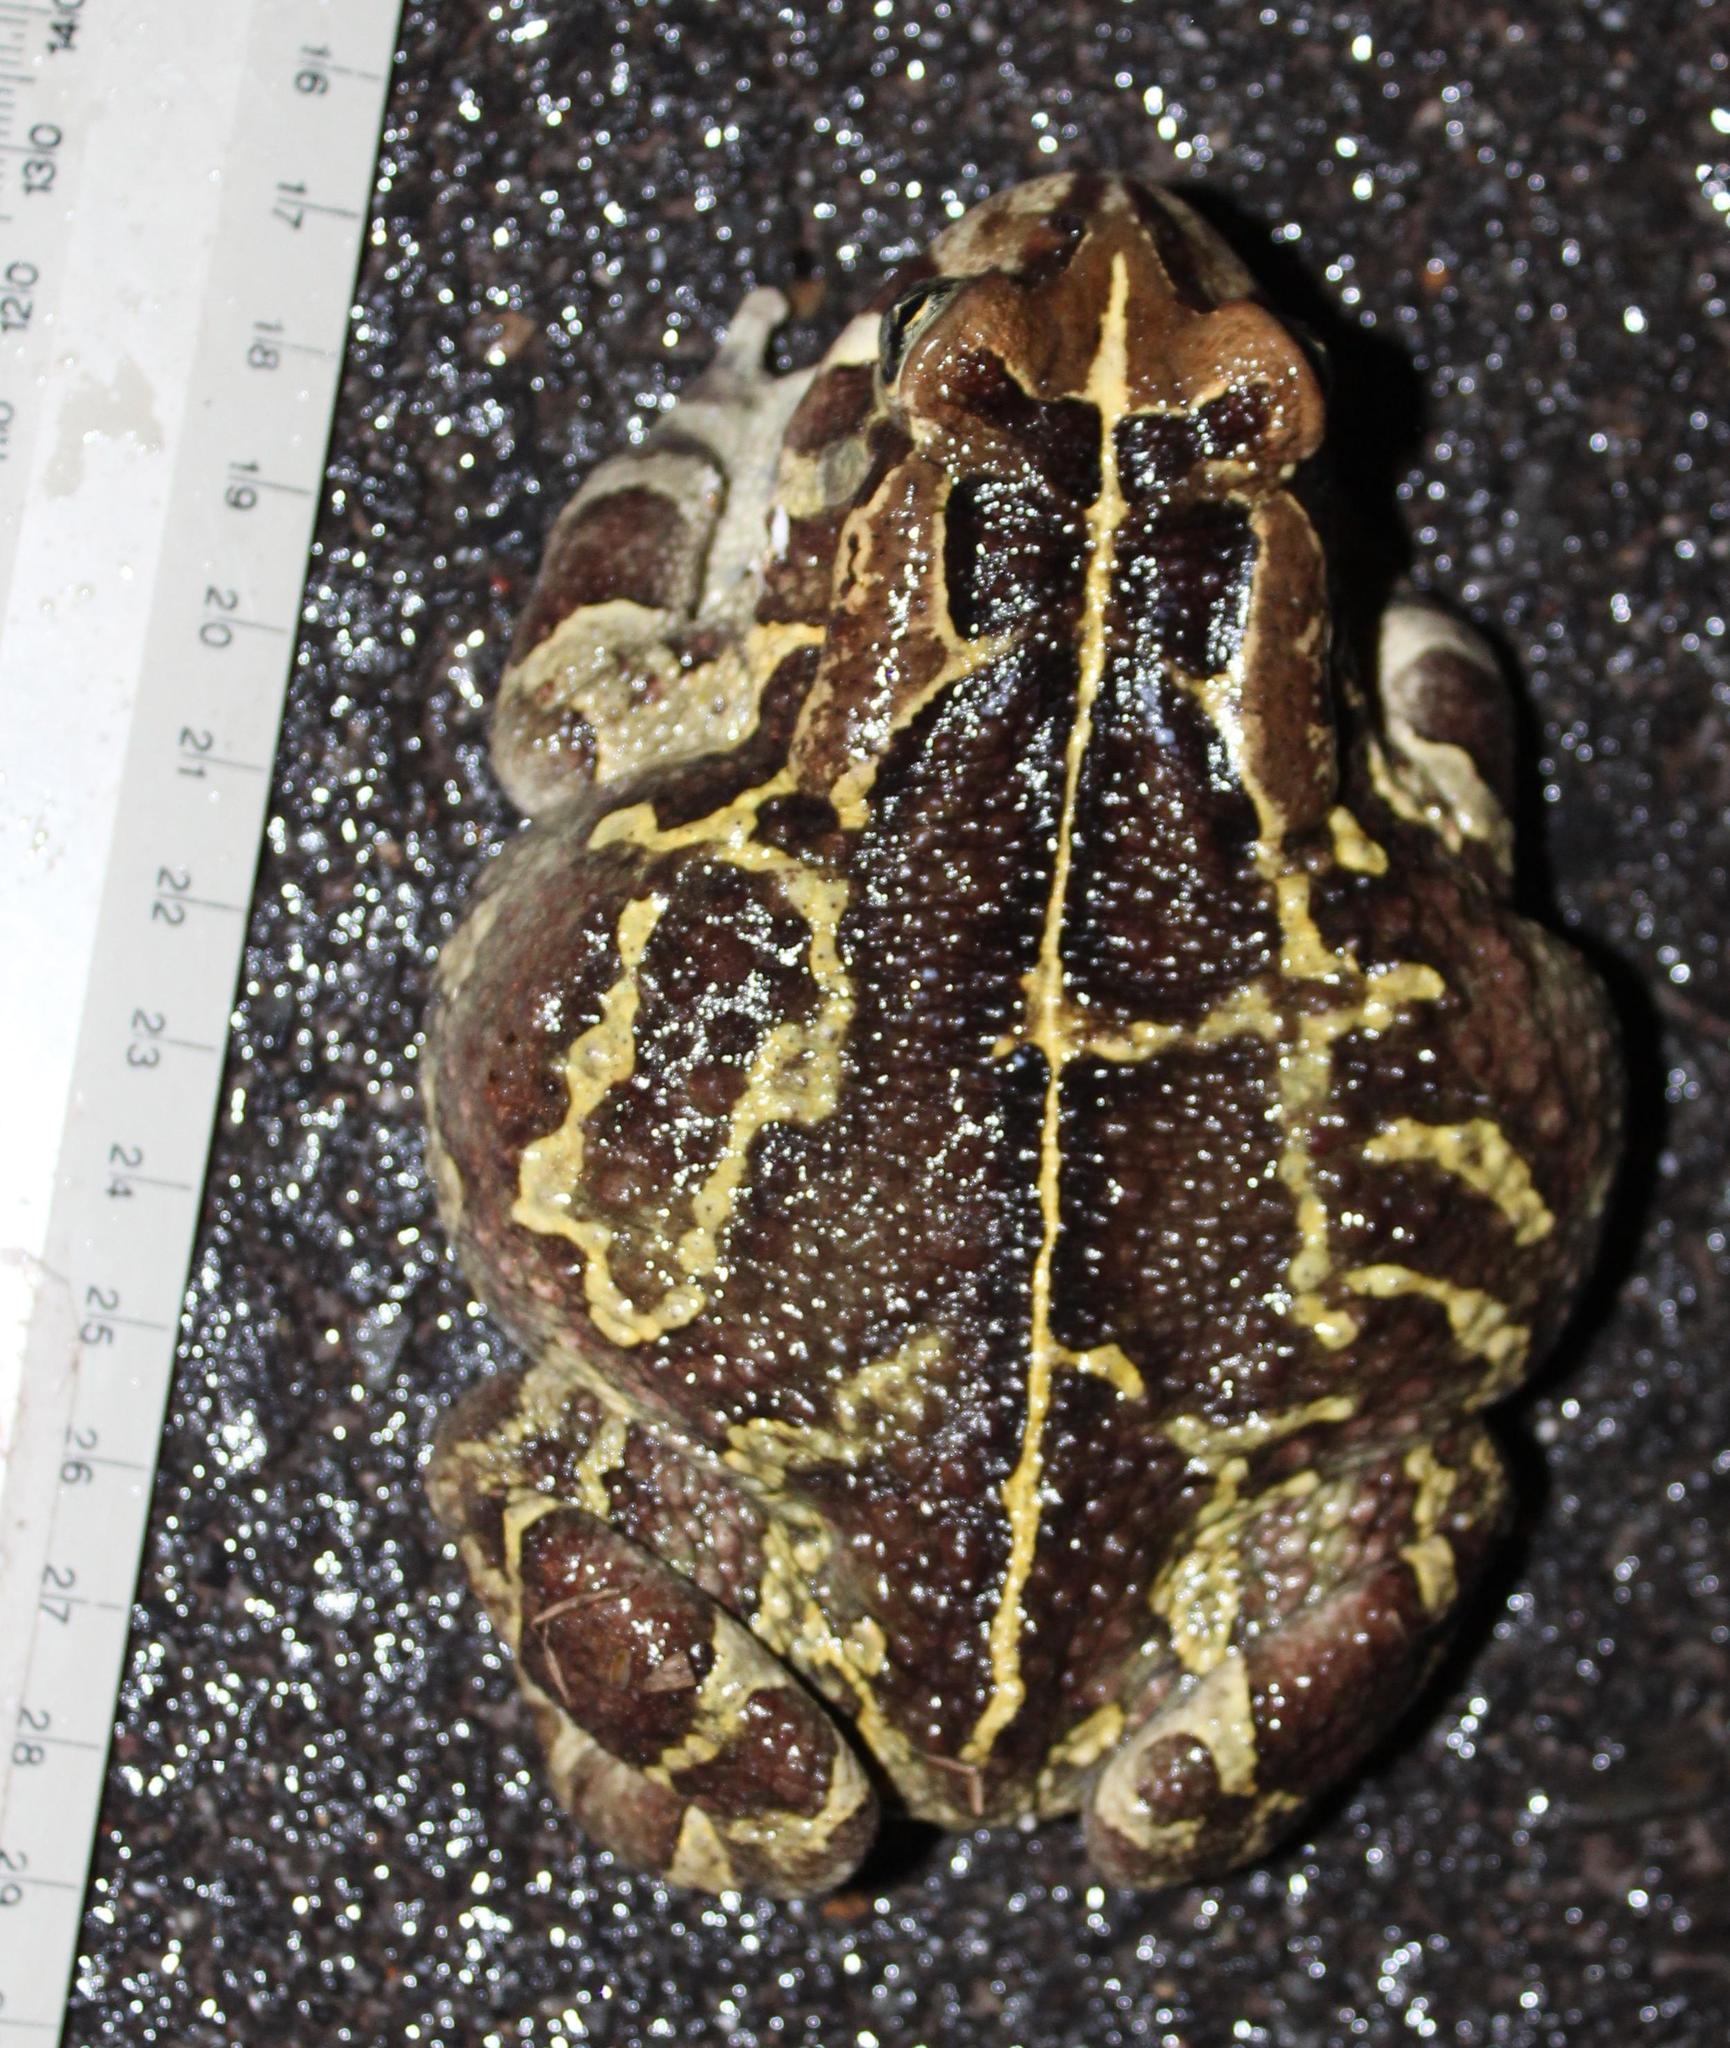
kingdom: Animalia
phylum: Chordata
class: Amphibia
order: Anura
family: Bufonidae
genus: Sclerophrys
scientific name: Sclerophrys pantherina
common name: Panther toad
